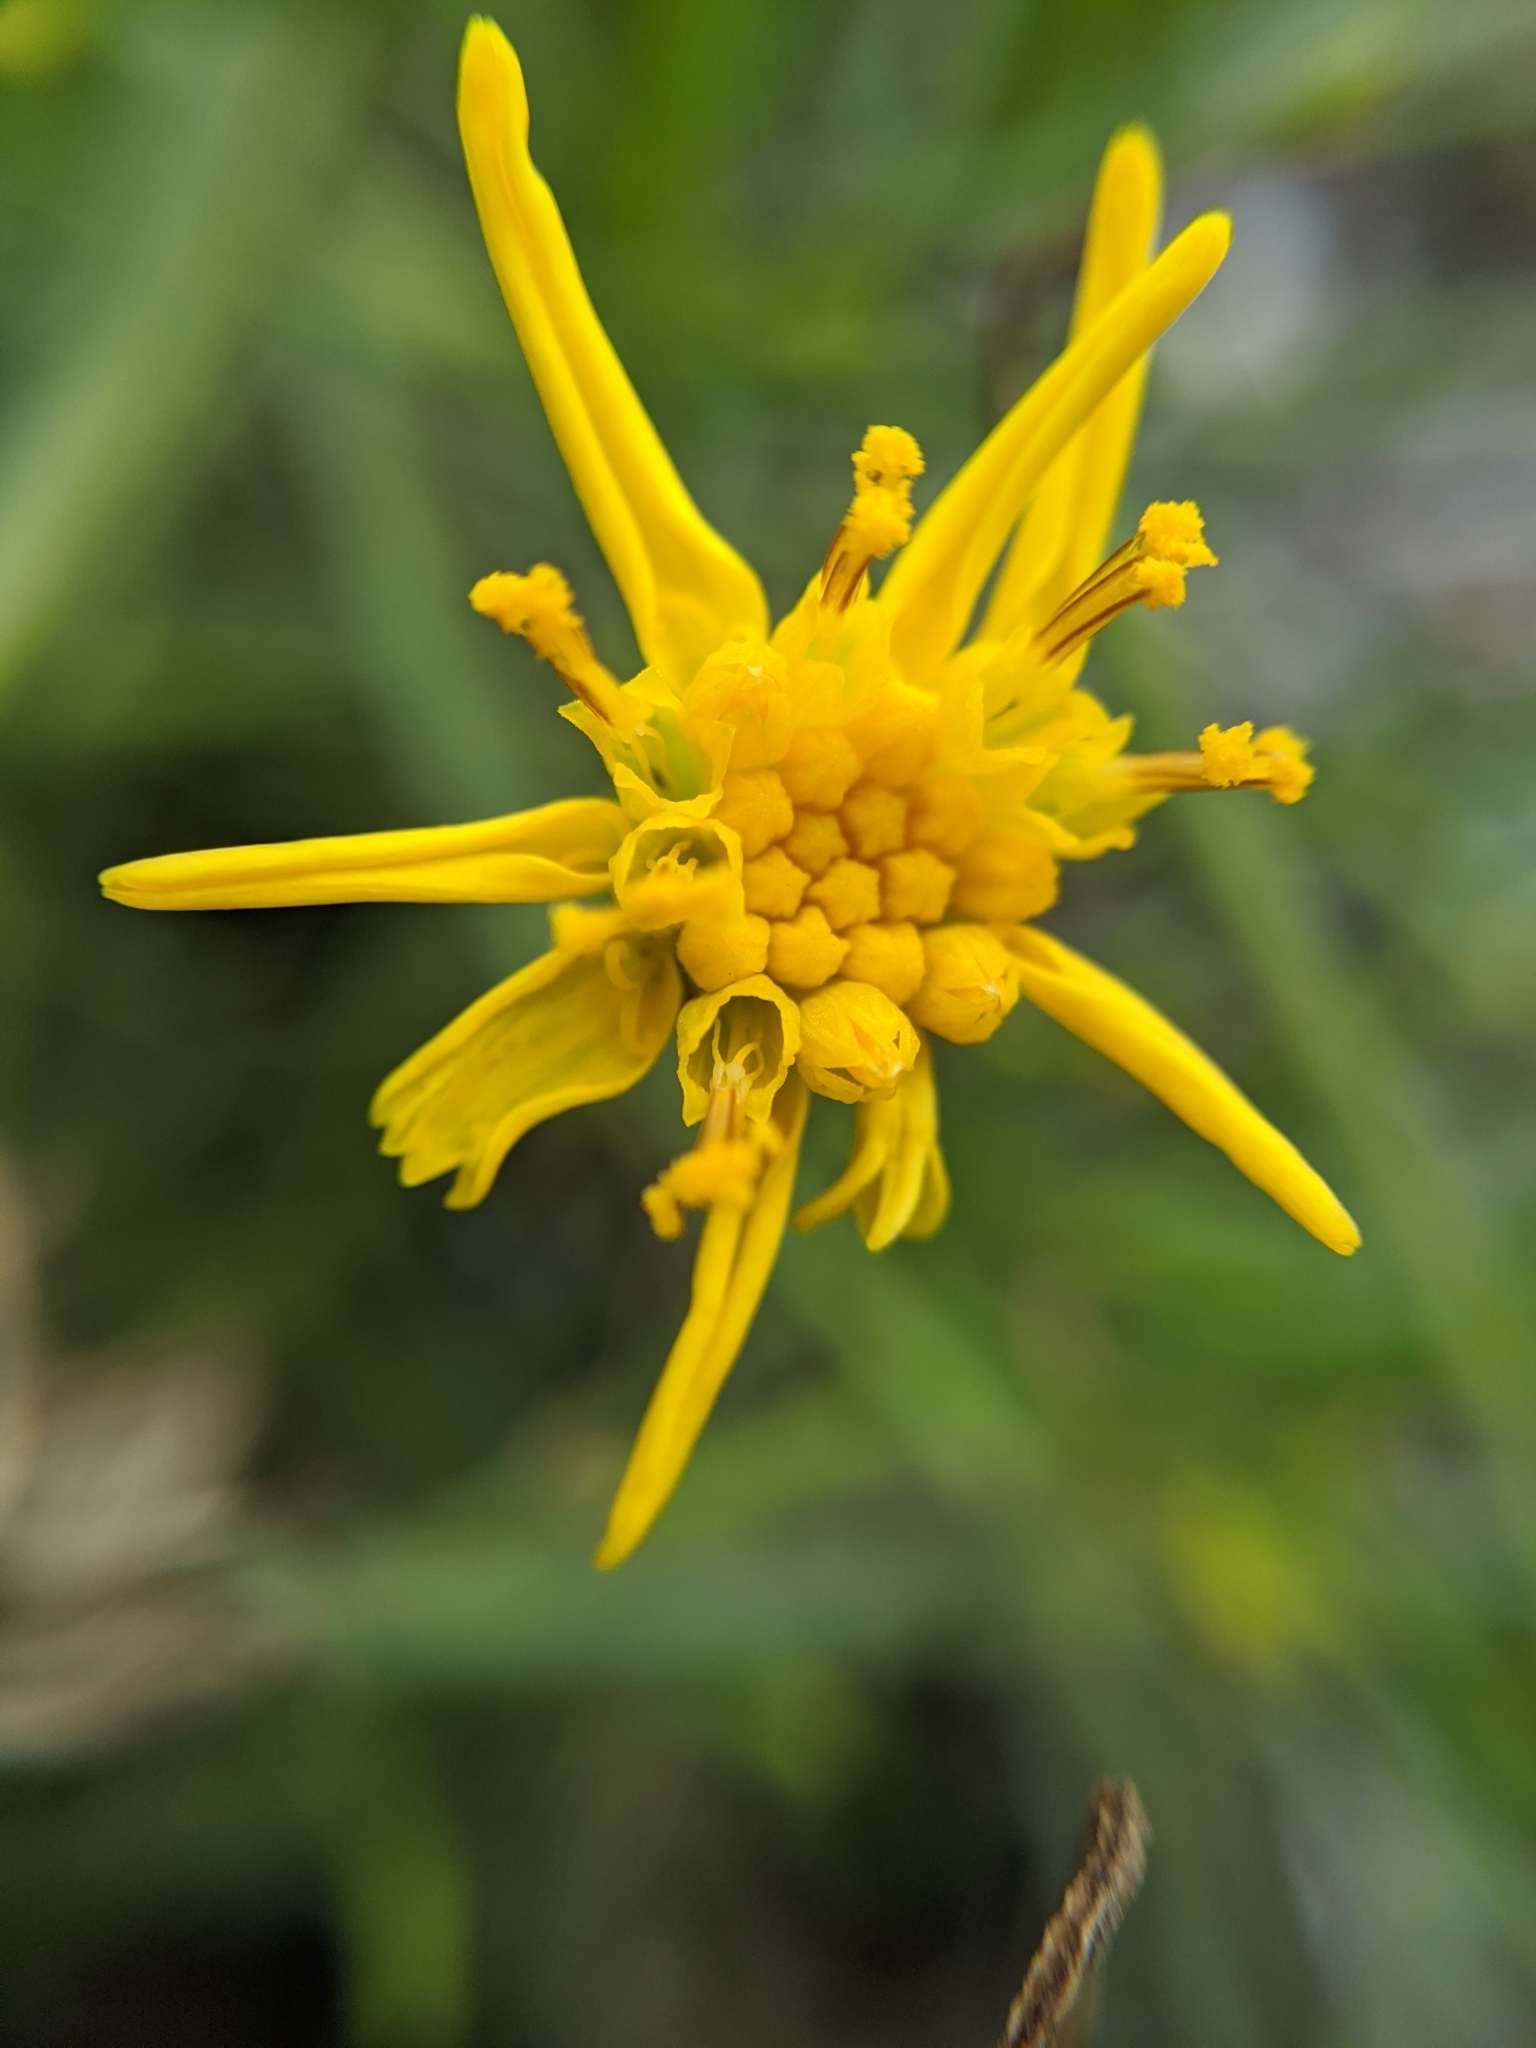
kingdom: Plantae
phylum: Tracheophyta
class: Magnoliopsida
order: Asterales
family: Asteraceae
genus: Senecio
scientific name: Senecio blochmaniae
